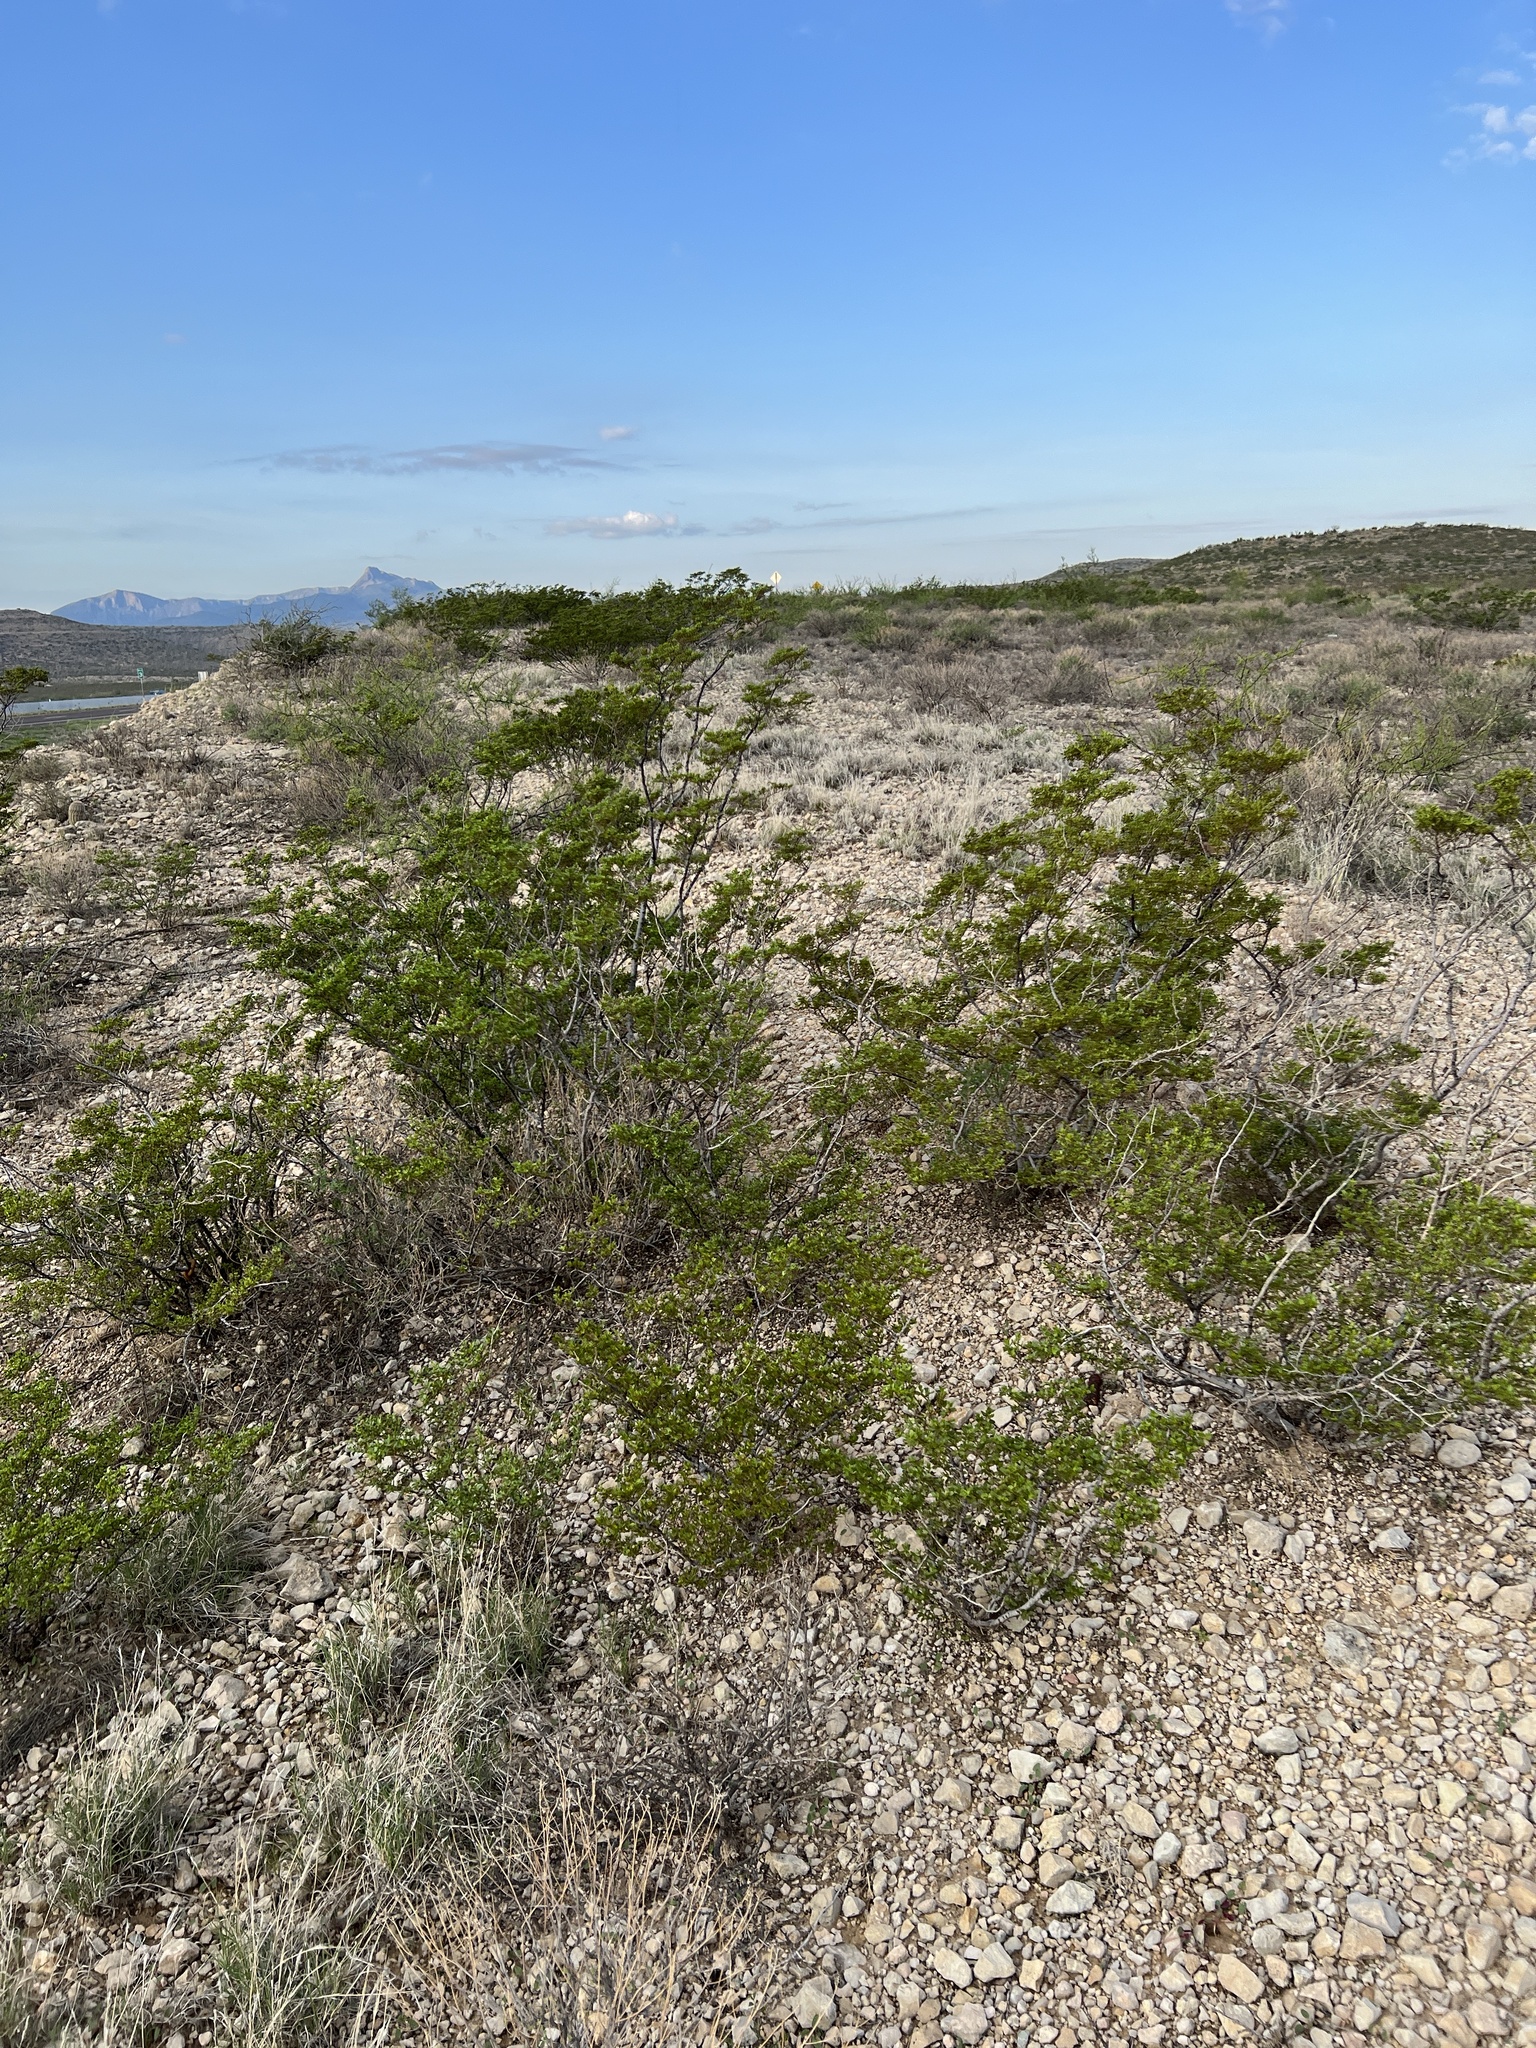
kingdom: Plantae
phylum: Tracheophyta
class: Magnoliopsida
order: Zygophyllales
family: Zygophyllaceae
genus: Larrea
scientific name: Larrea tridentata
